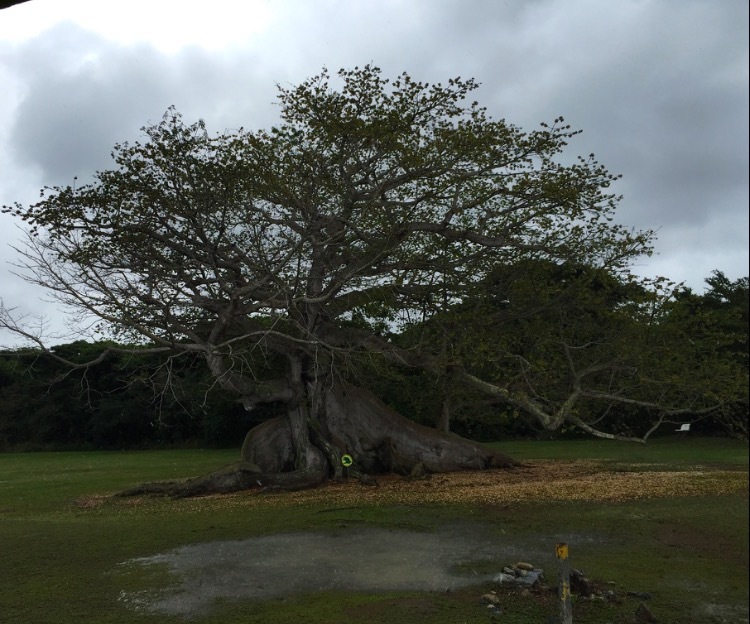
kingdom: Plantae
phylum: Tracheophyta
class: Magnoliopsida
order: Malvales
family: Malvaceae
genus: Ceiba
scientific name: Ceiba pentandra
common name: Kapok
